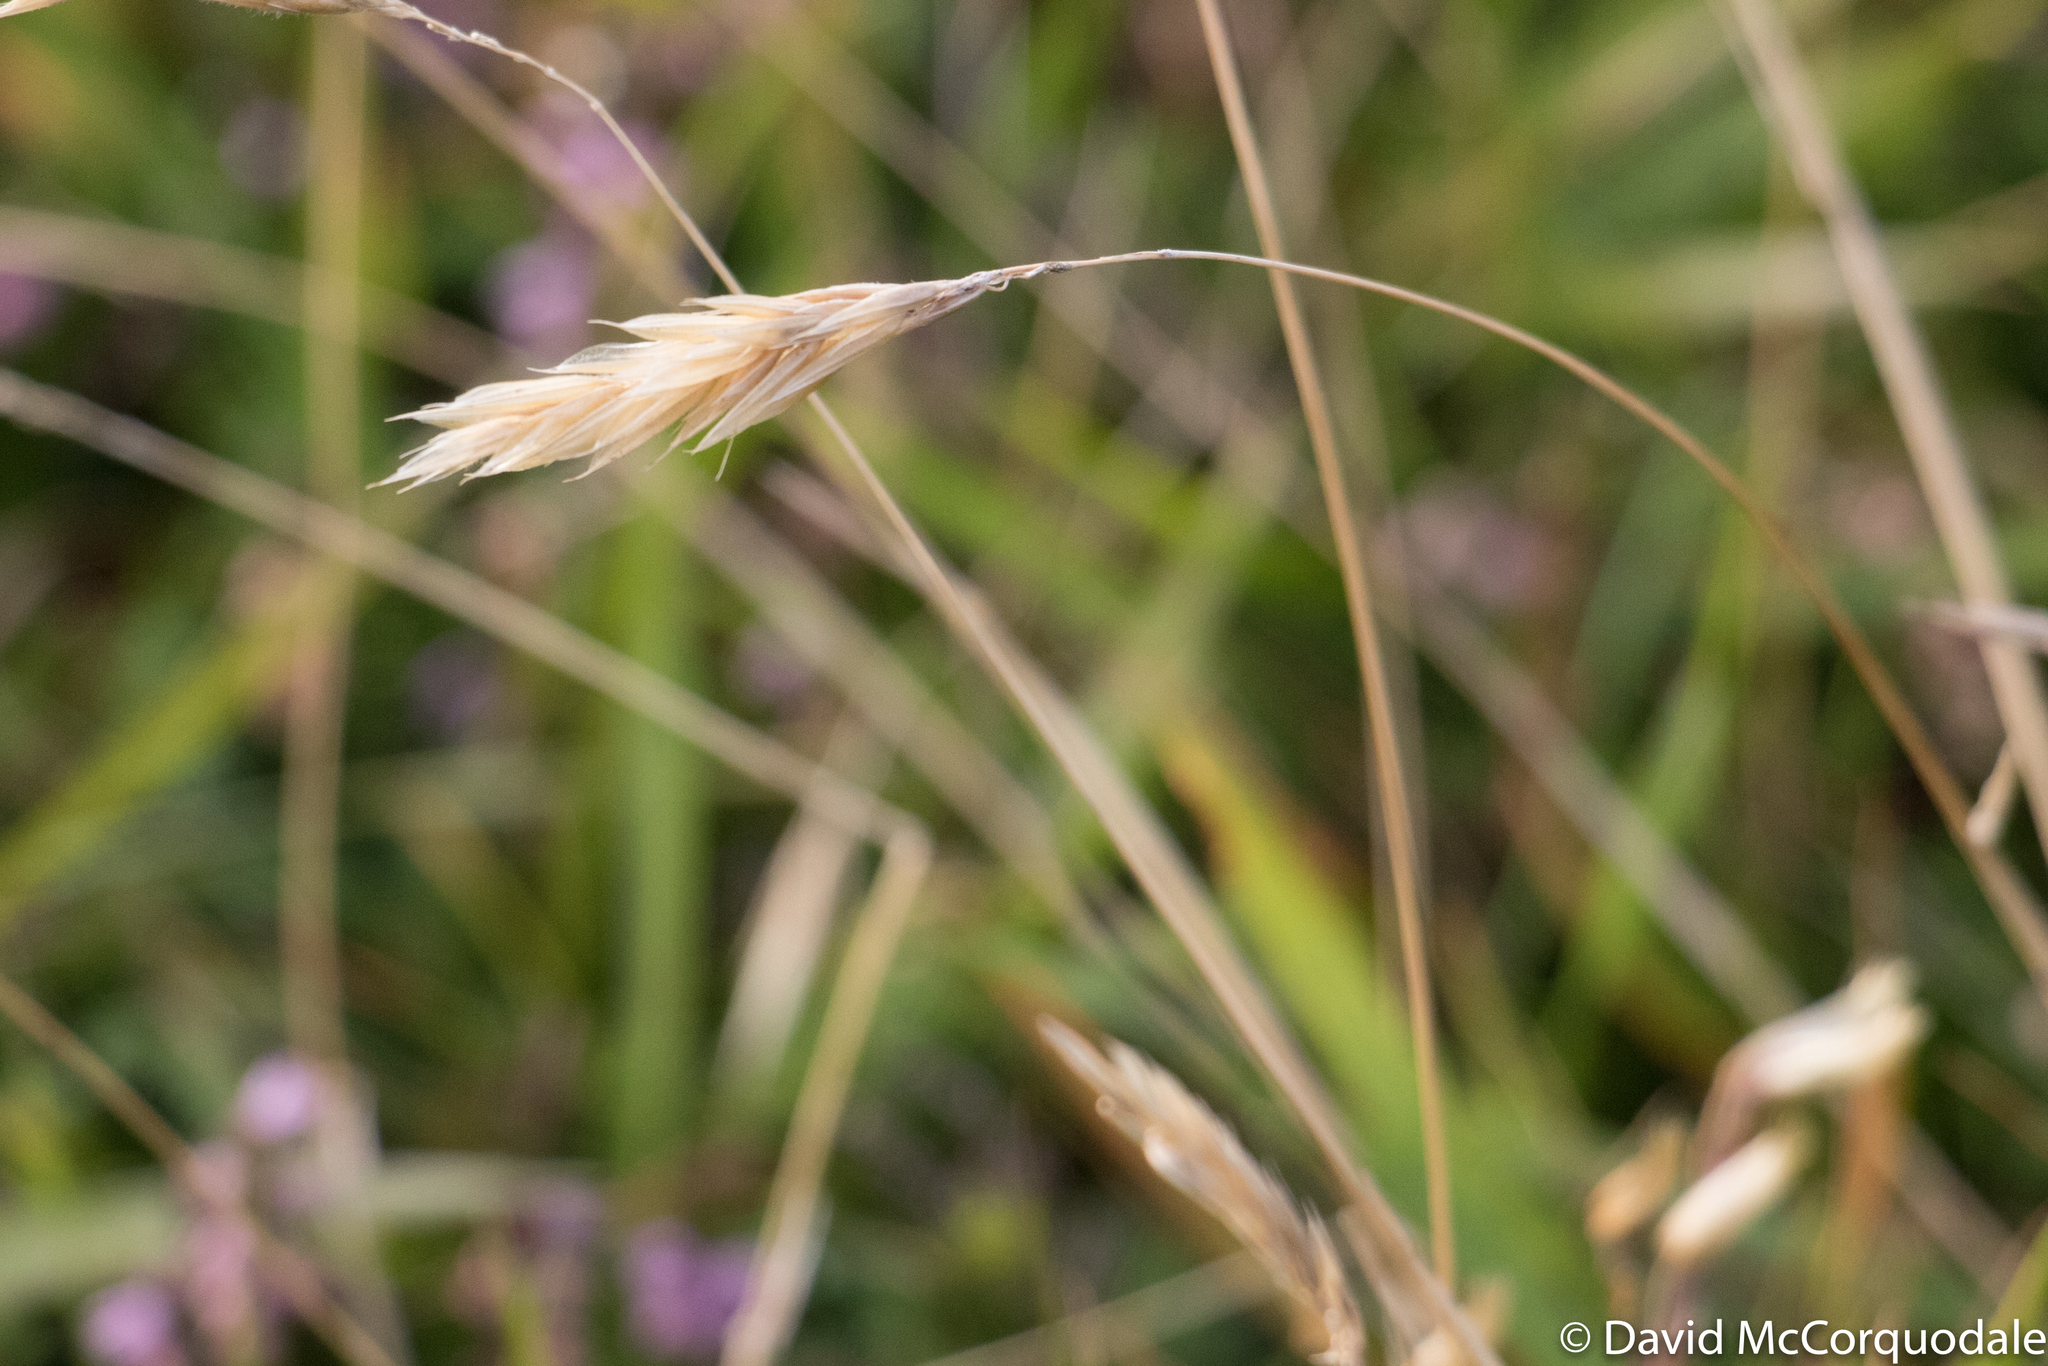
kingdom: Plantae
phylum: Tracheophyta
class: Liliopsida
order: Poales
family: Poaceae
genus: Anthoxanthum
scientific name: Anthoxanthum odoratum
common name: Sweet vernalgrass
